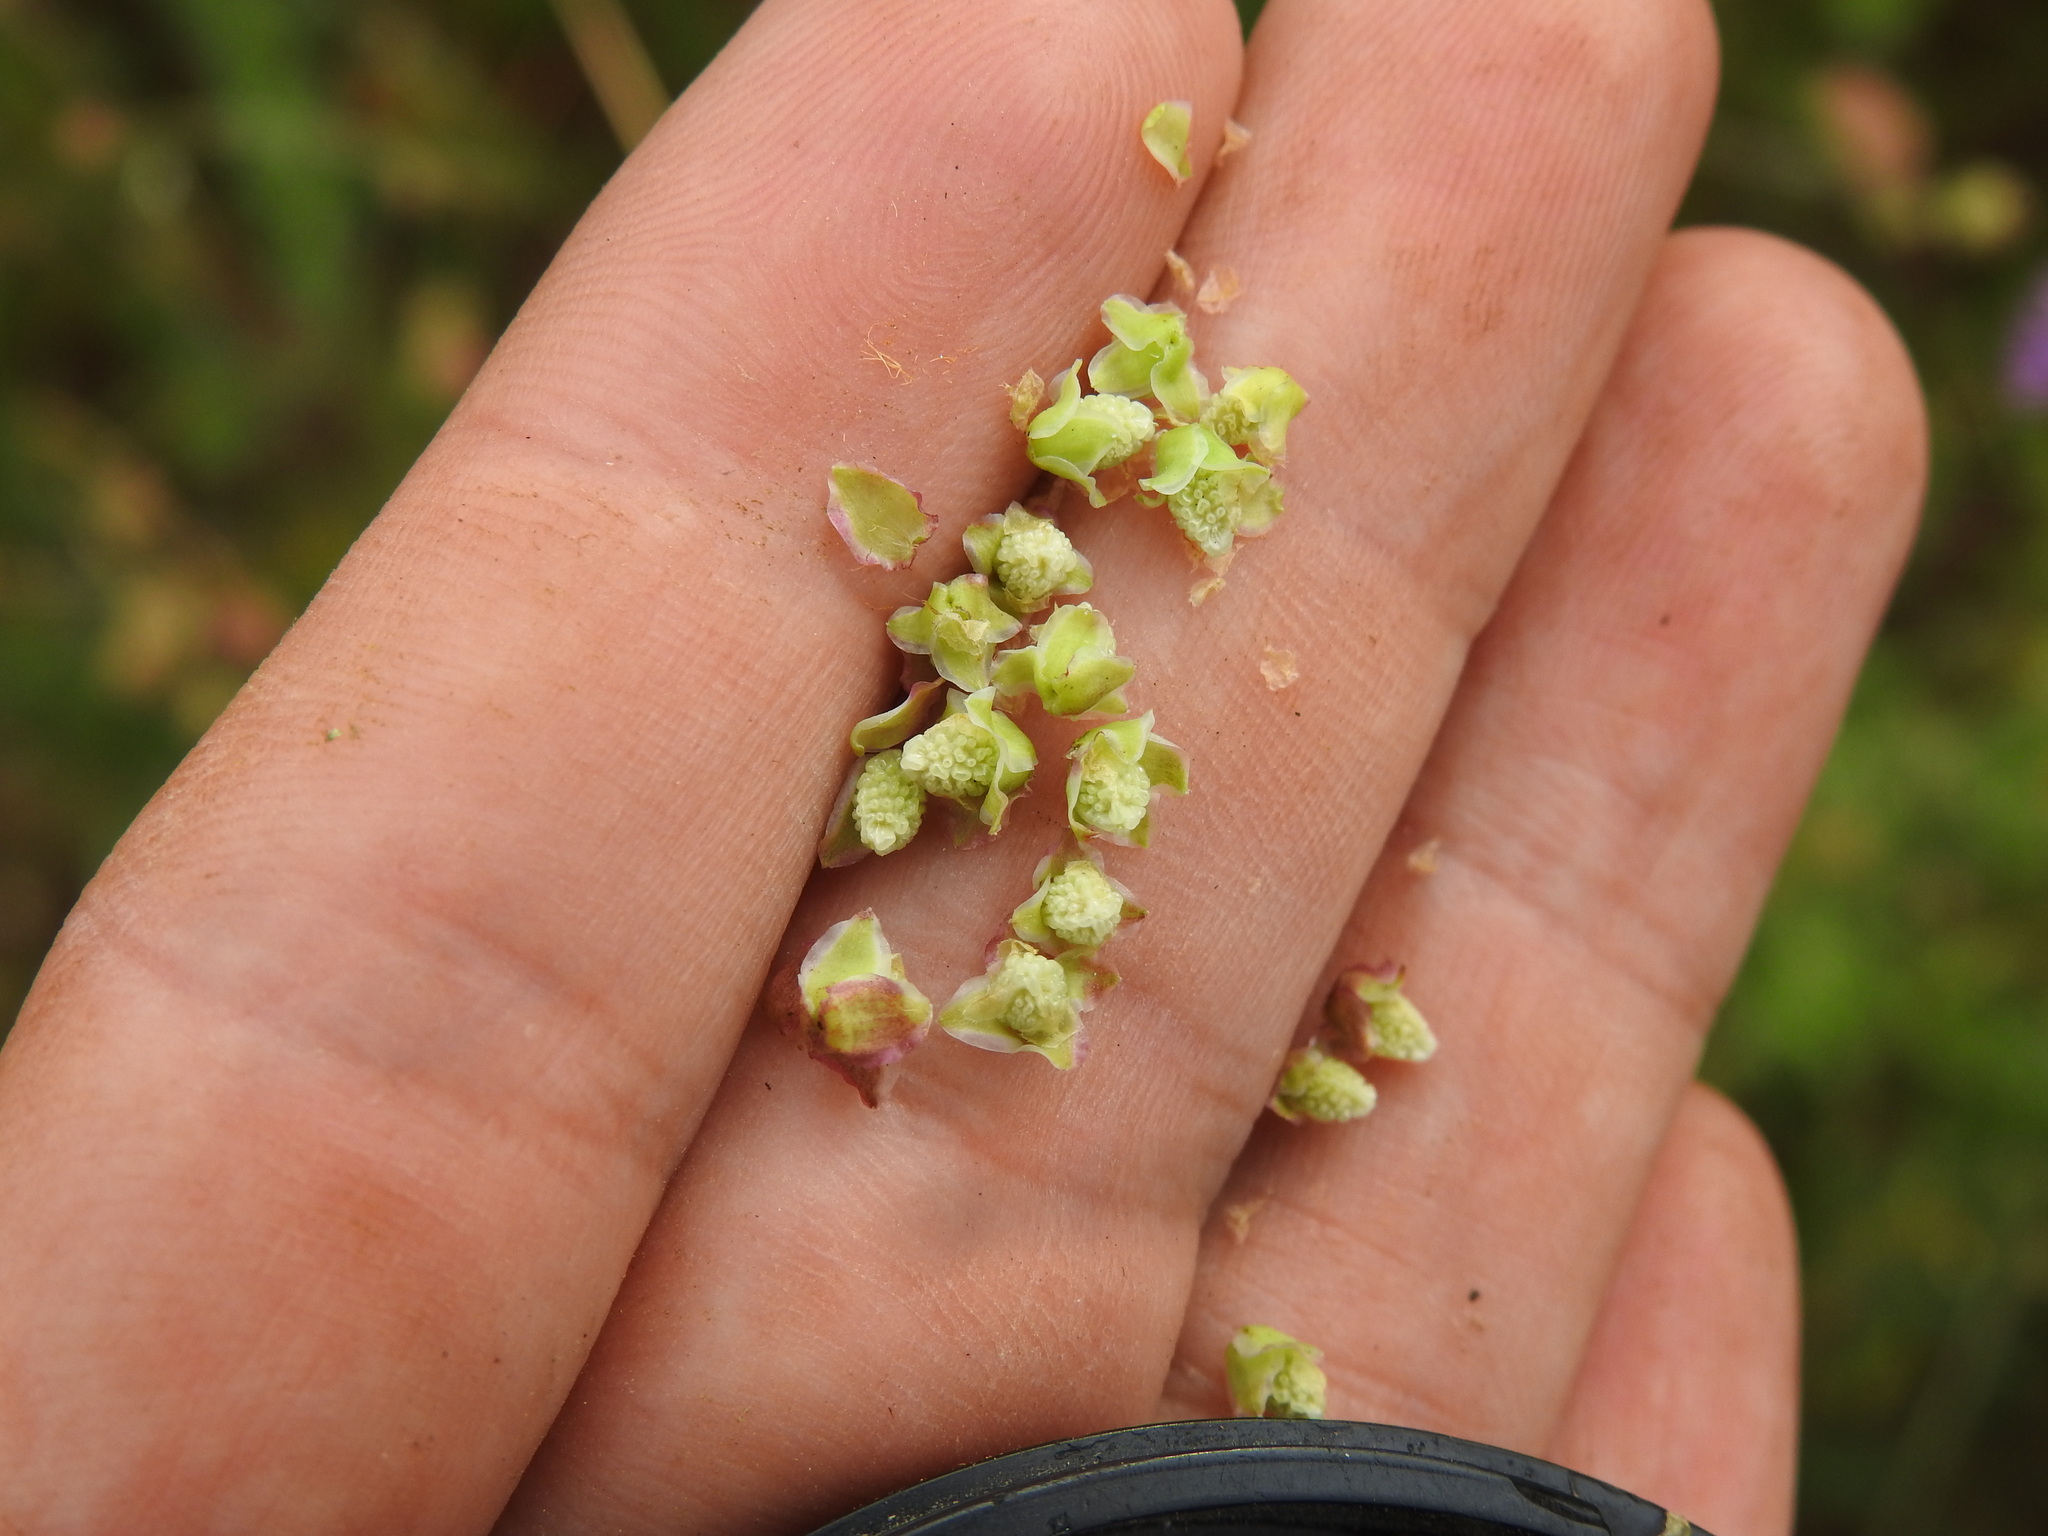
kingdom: Plantae
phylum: Tracheophyta
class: Magnoliopsida
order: Rosales
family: Rosaceae
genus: Poterium
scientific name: Poterium
